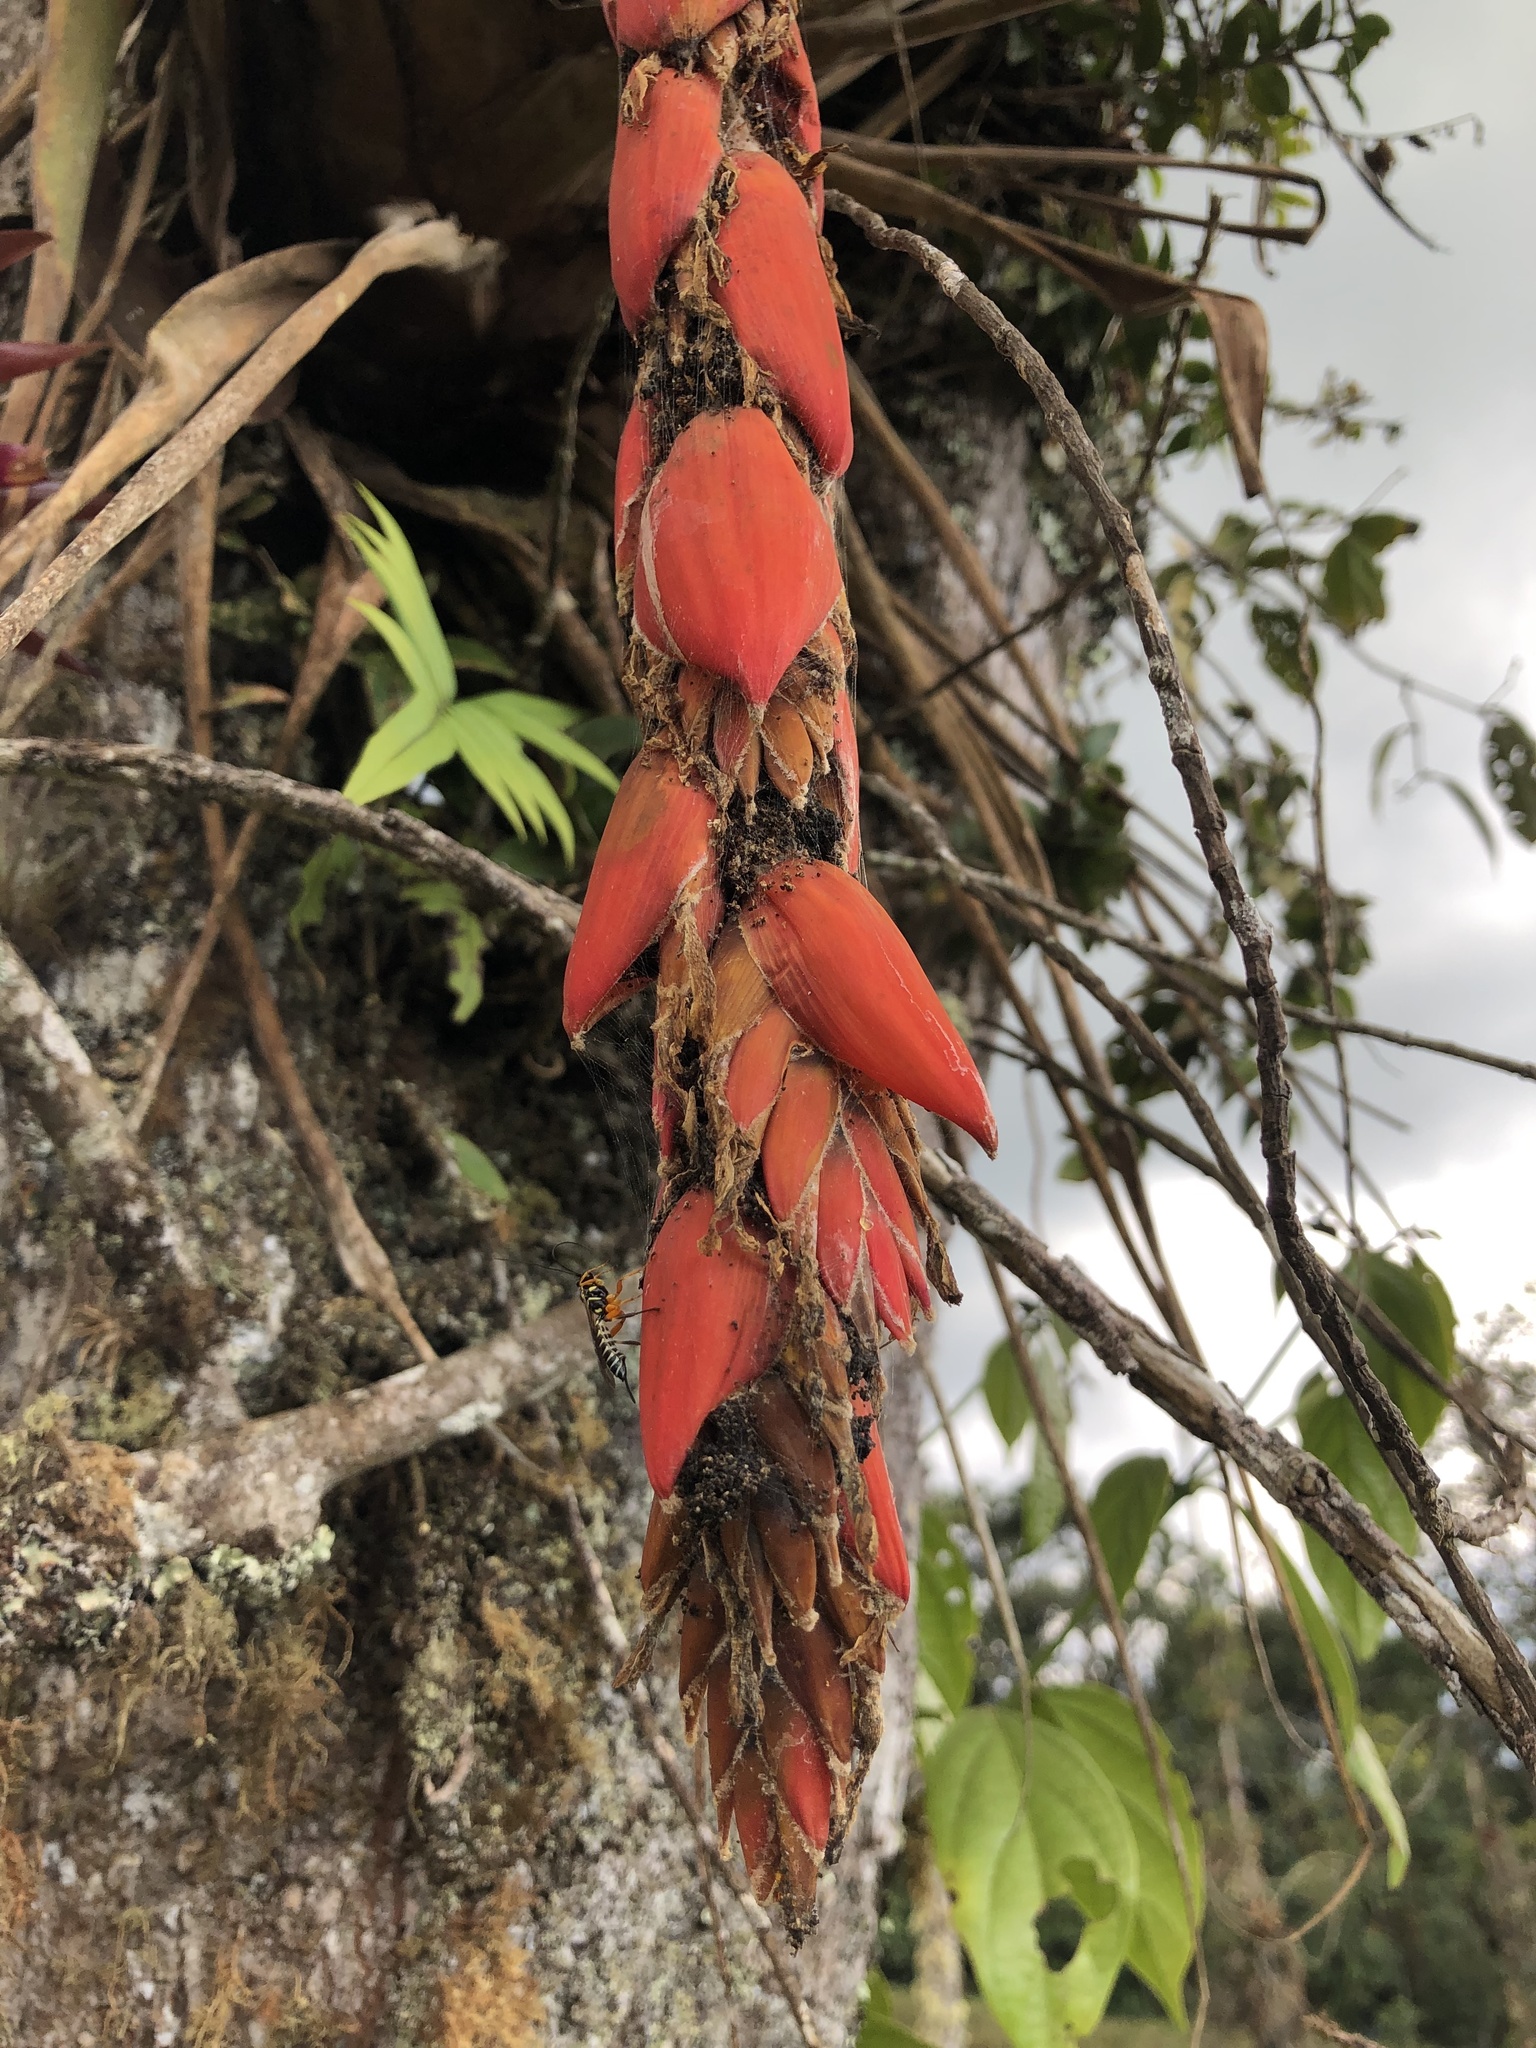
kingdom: Plantae
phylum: Tracheophyta
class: Liliopsida
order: Poales
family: Bromeliaceae
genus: Vriesea
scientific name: Vriesea tequendamae
